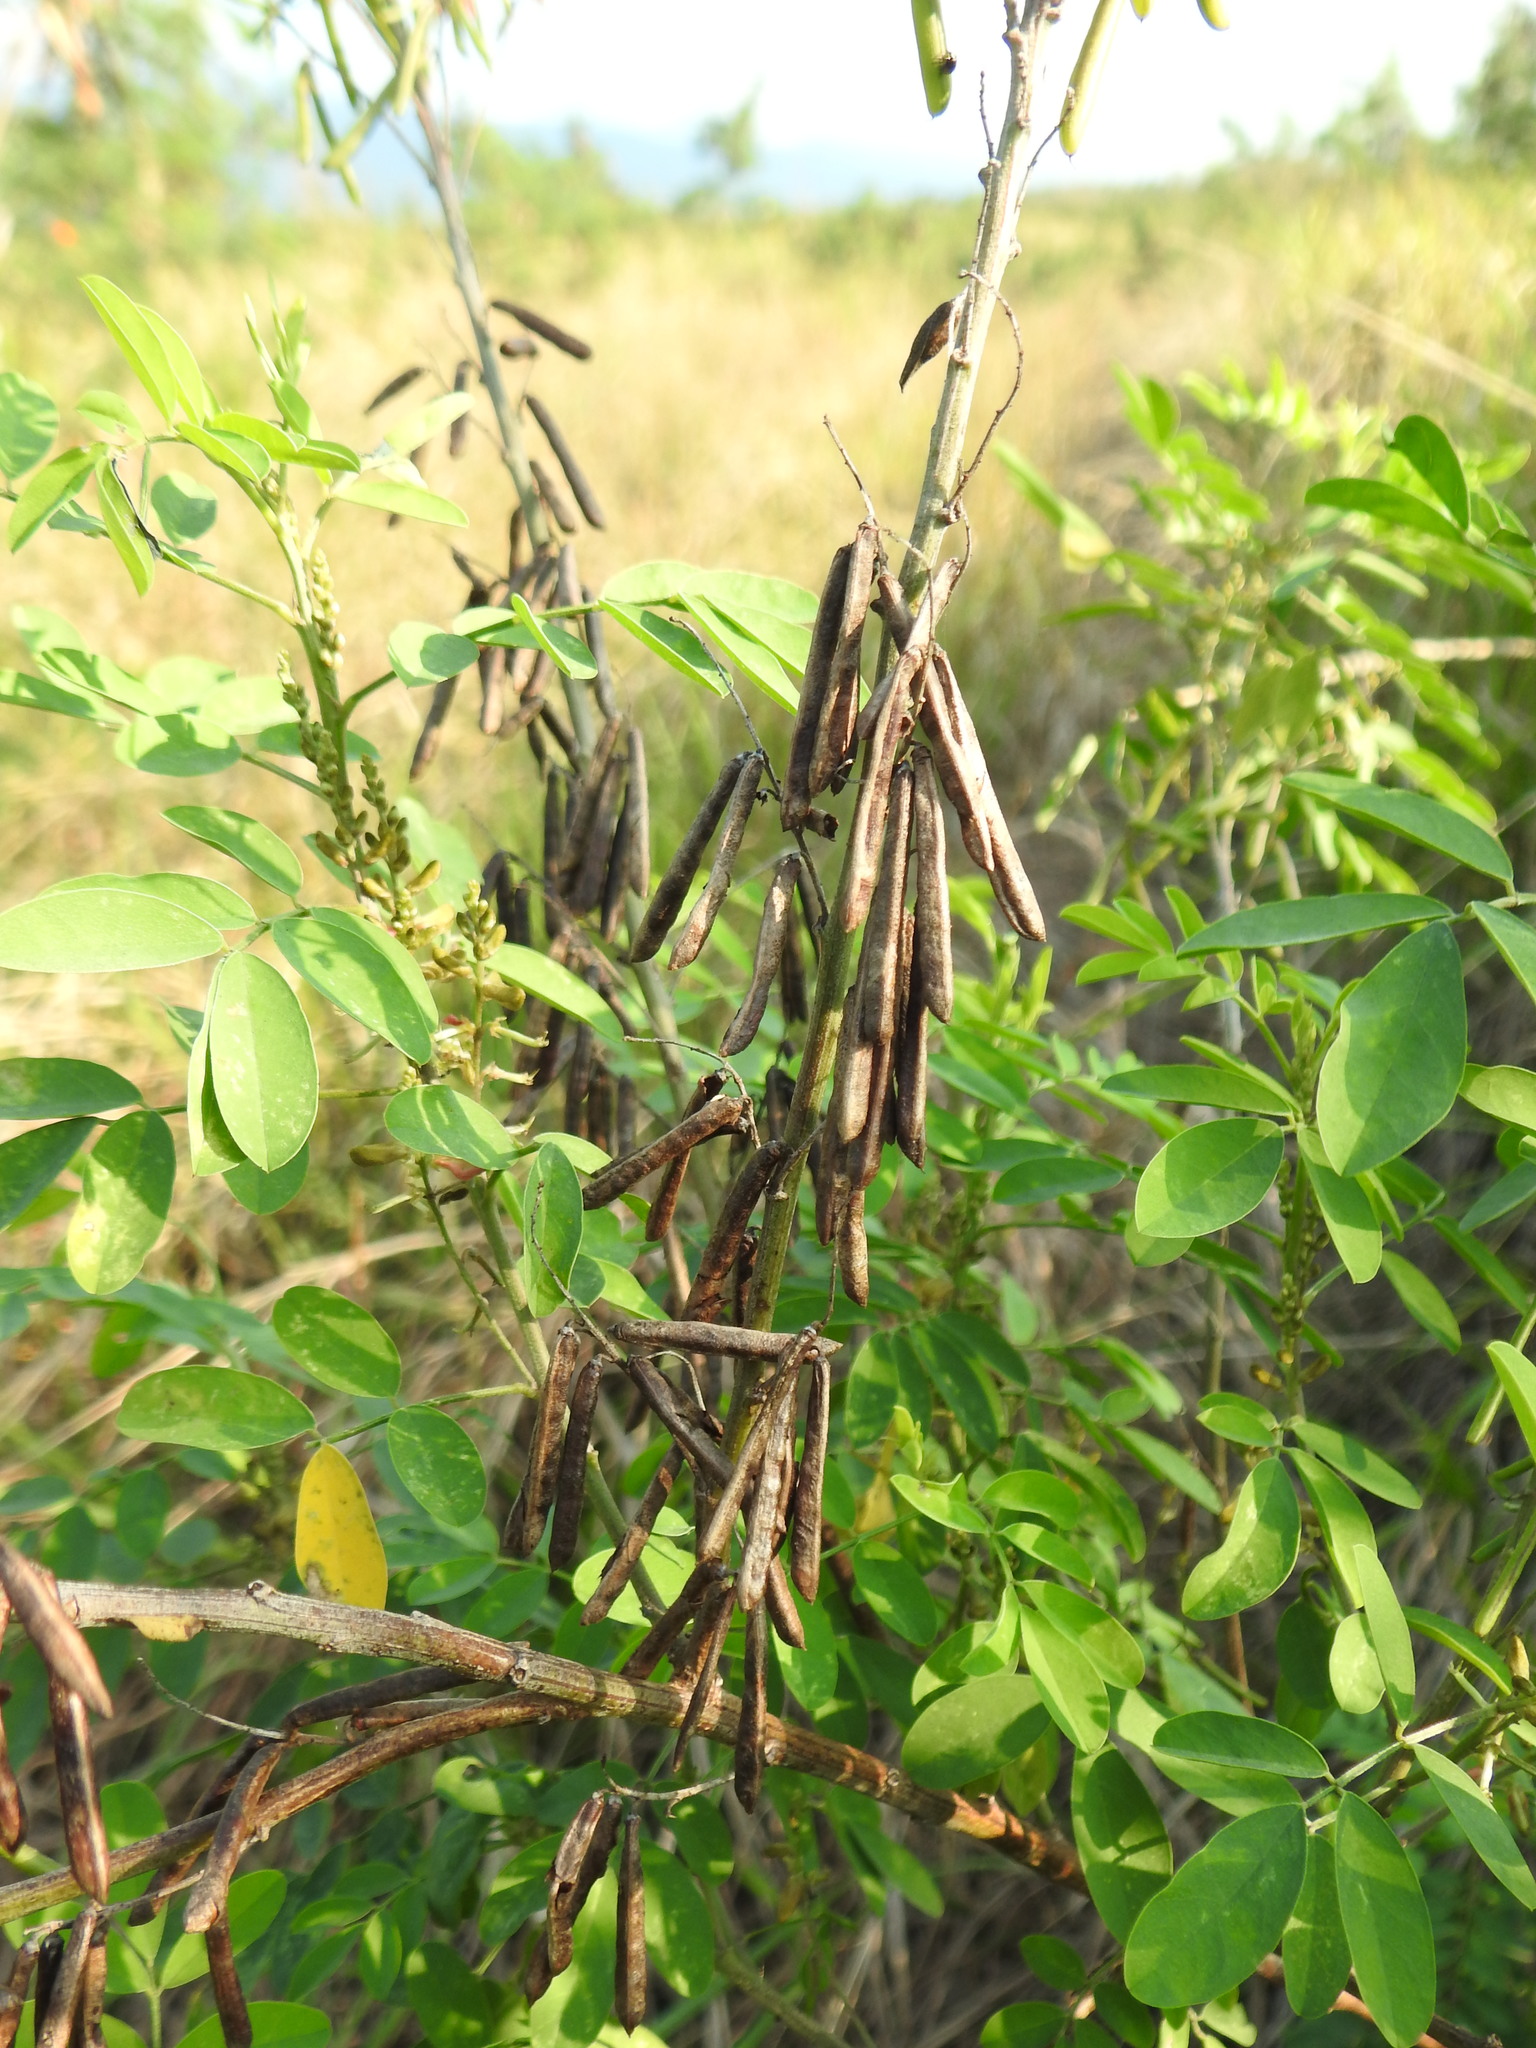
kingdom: Plantae
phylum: Tracheophyta
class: Magnoliopsida
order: Fabales
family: Fabaceae
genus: Crotalaria
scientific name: Crotalaria pallida
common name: Smooth rattlebox
